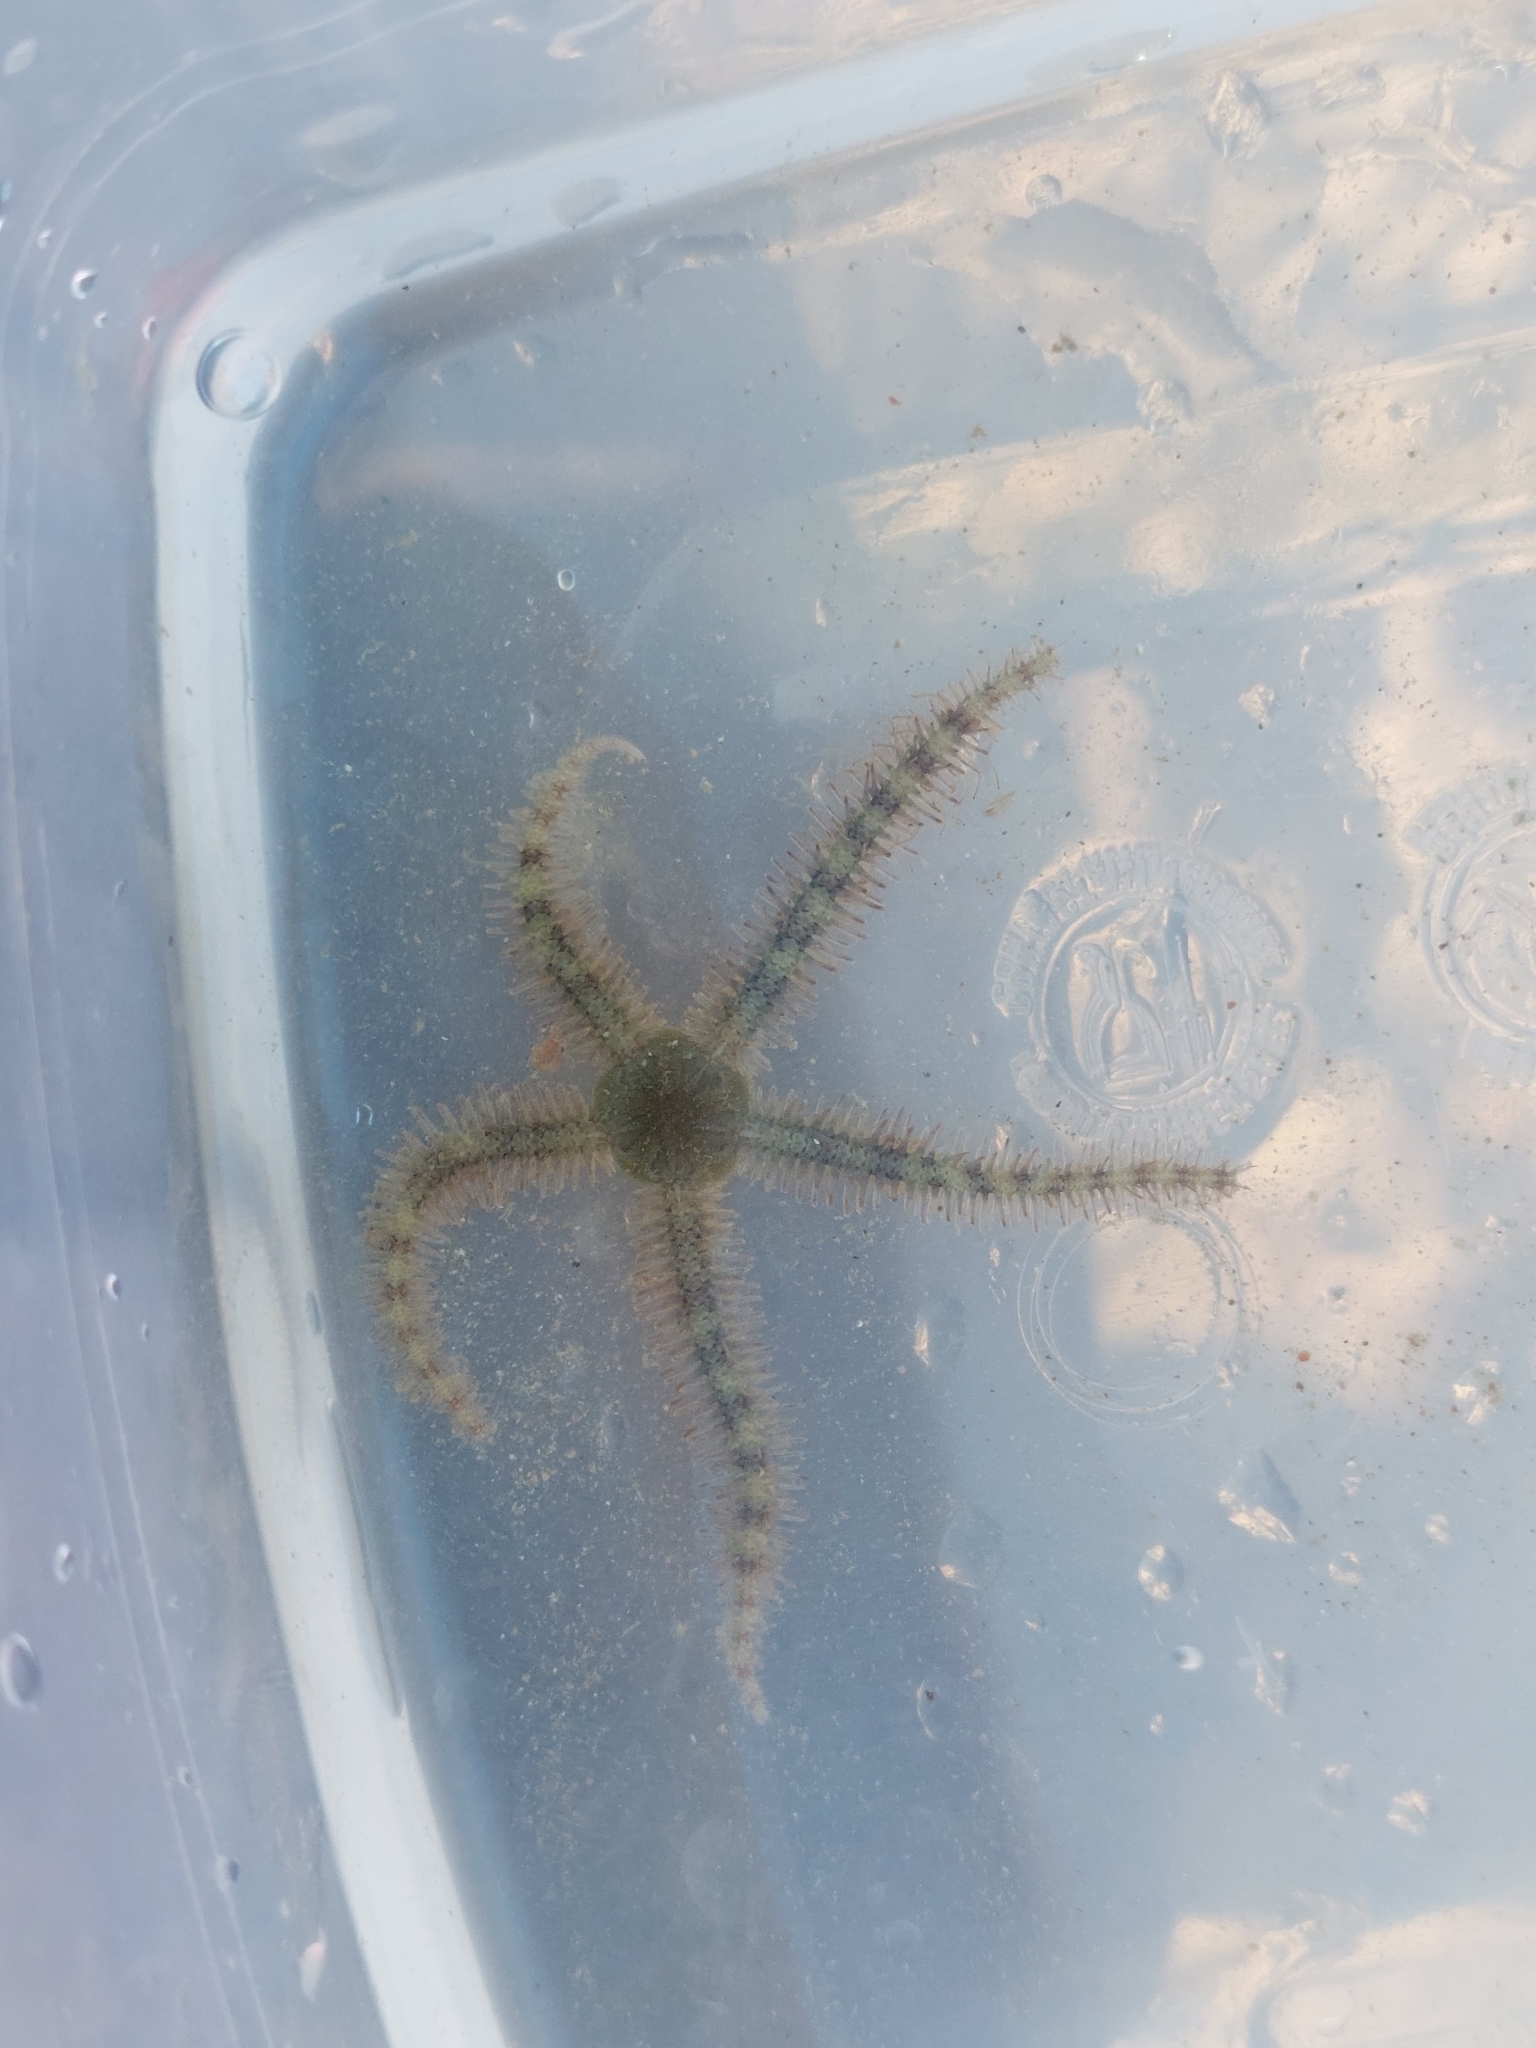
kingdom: Animalia
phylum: Echinodermata
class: Ophiuroidea
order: Amphilepidida
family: Ophiotrichidae
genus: Ophiothrix
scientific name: Ophiothrix fragilis
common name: Common brittlestar
